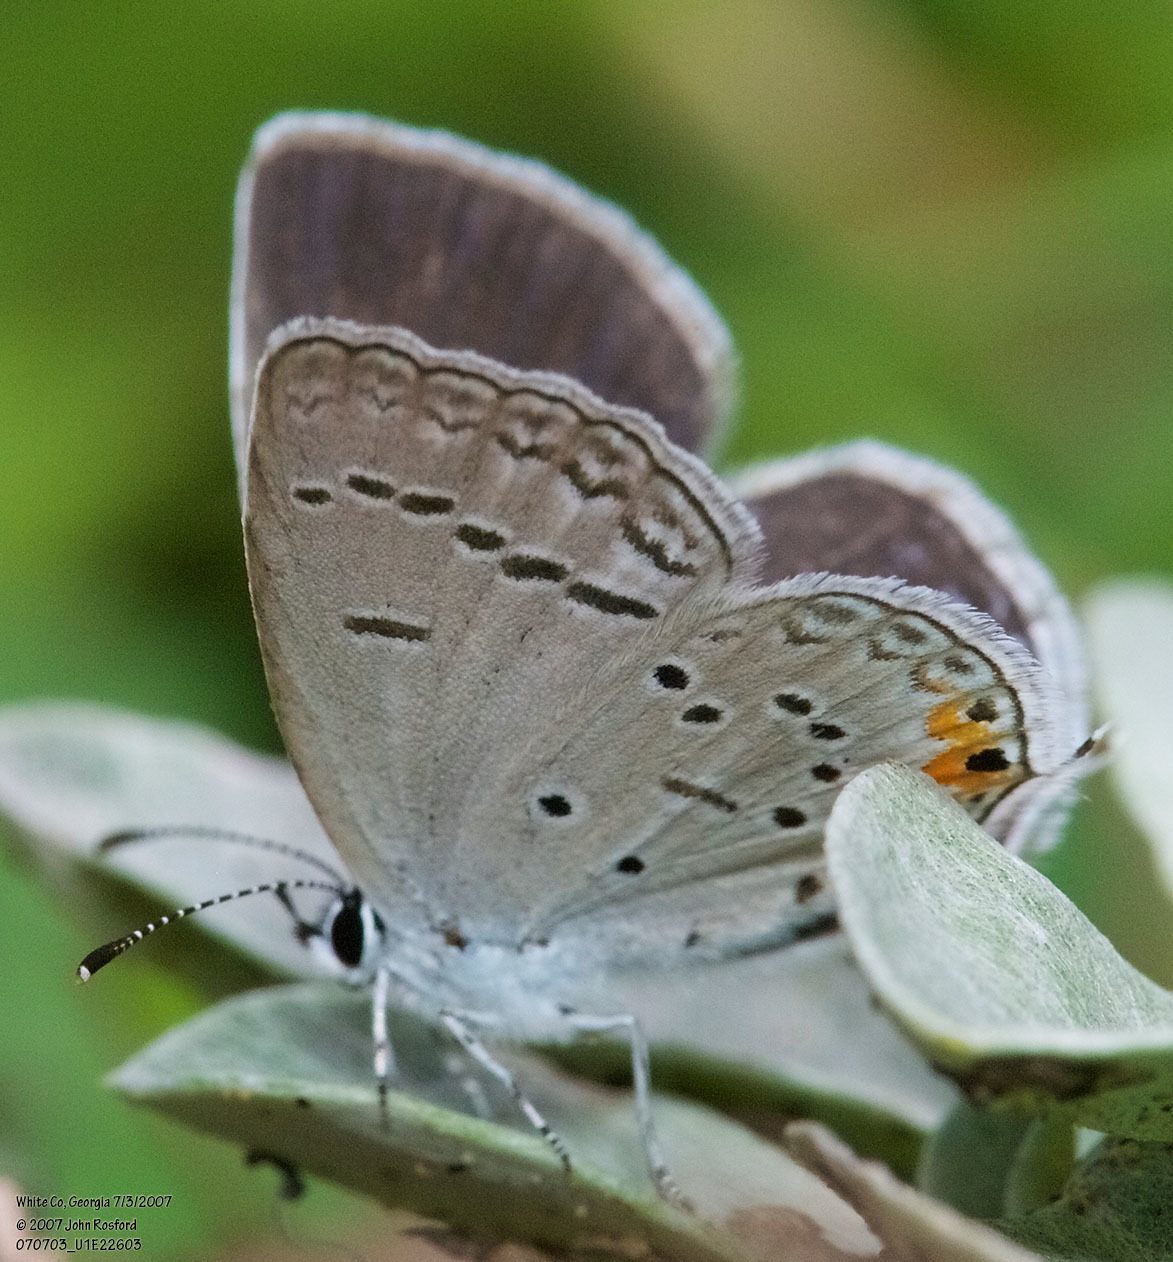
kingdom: Animalia
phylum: Arthropoda
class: Insecta
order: Lepidoptera
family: Lycaenidae
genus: Elkalyce
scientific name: Elkalyce comyntas
